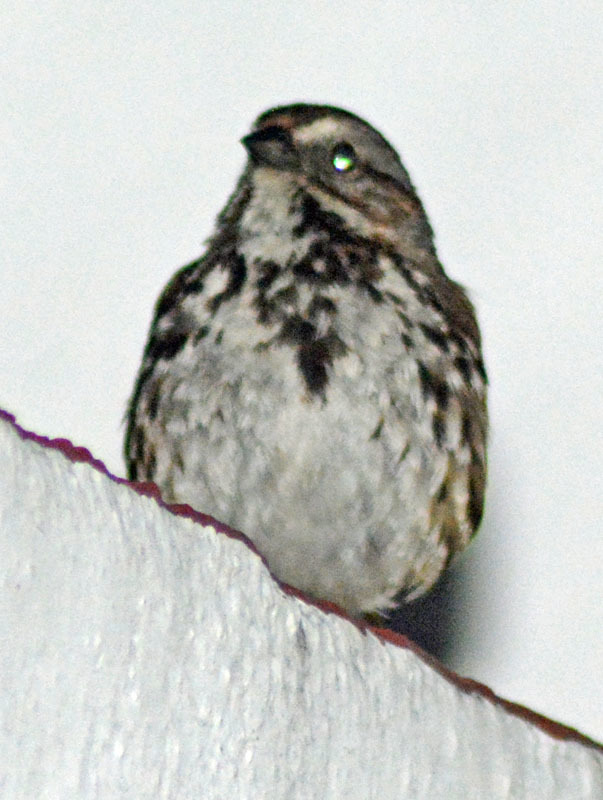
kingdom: Animalia
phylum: Chordata
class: Aves
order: Passeriformes
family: Passerellidae
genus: Melospiza
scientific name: Melospiza melodia
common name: Song sparrow
